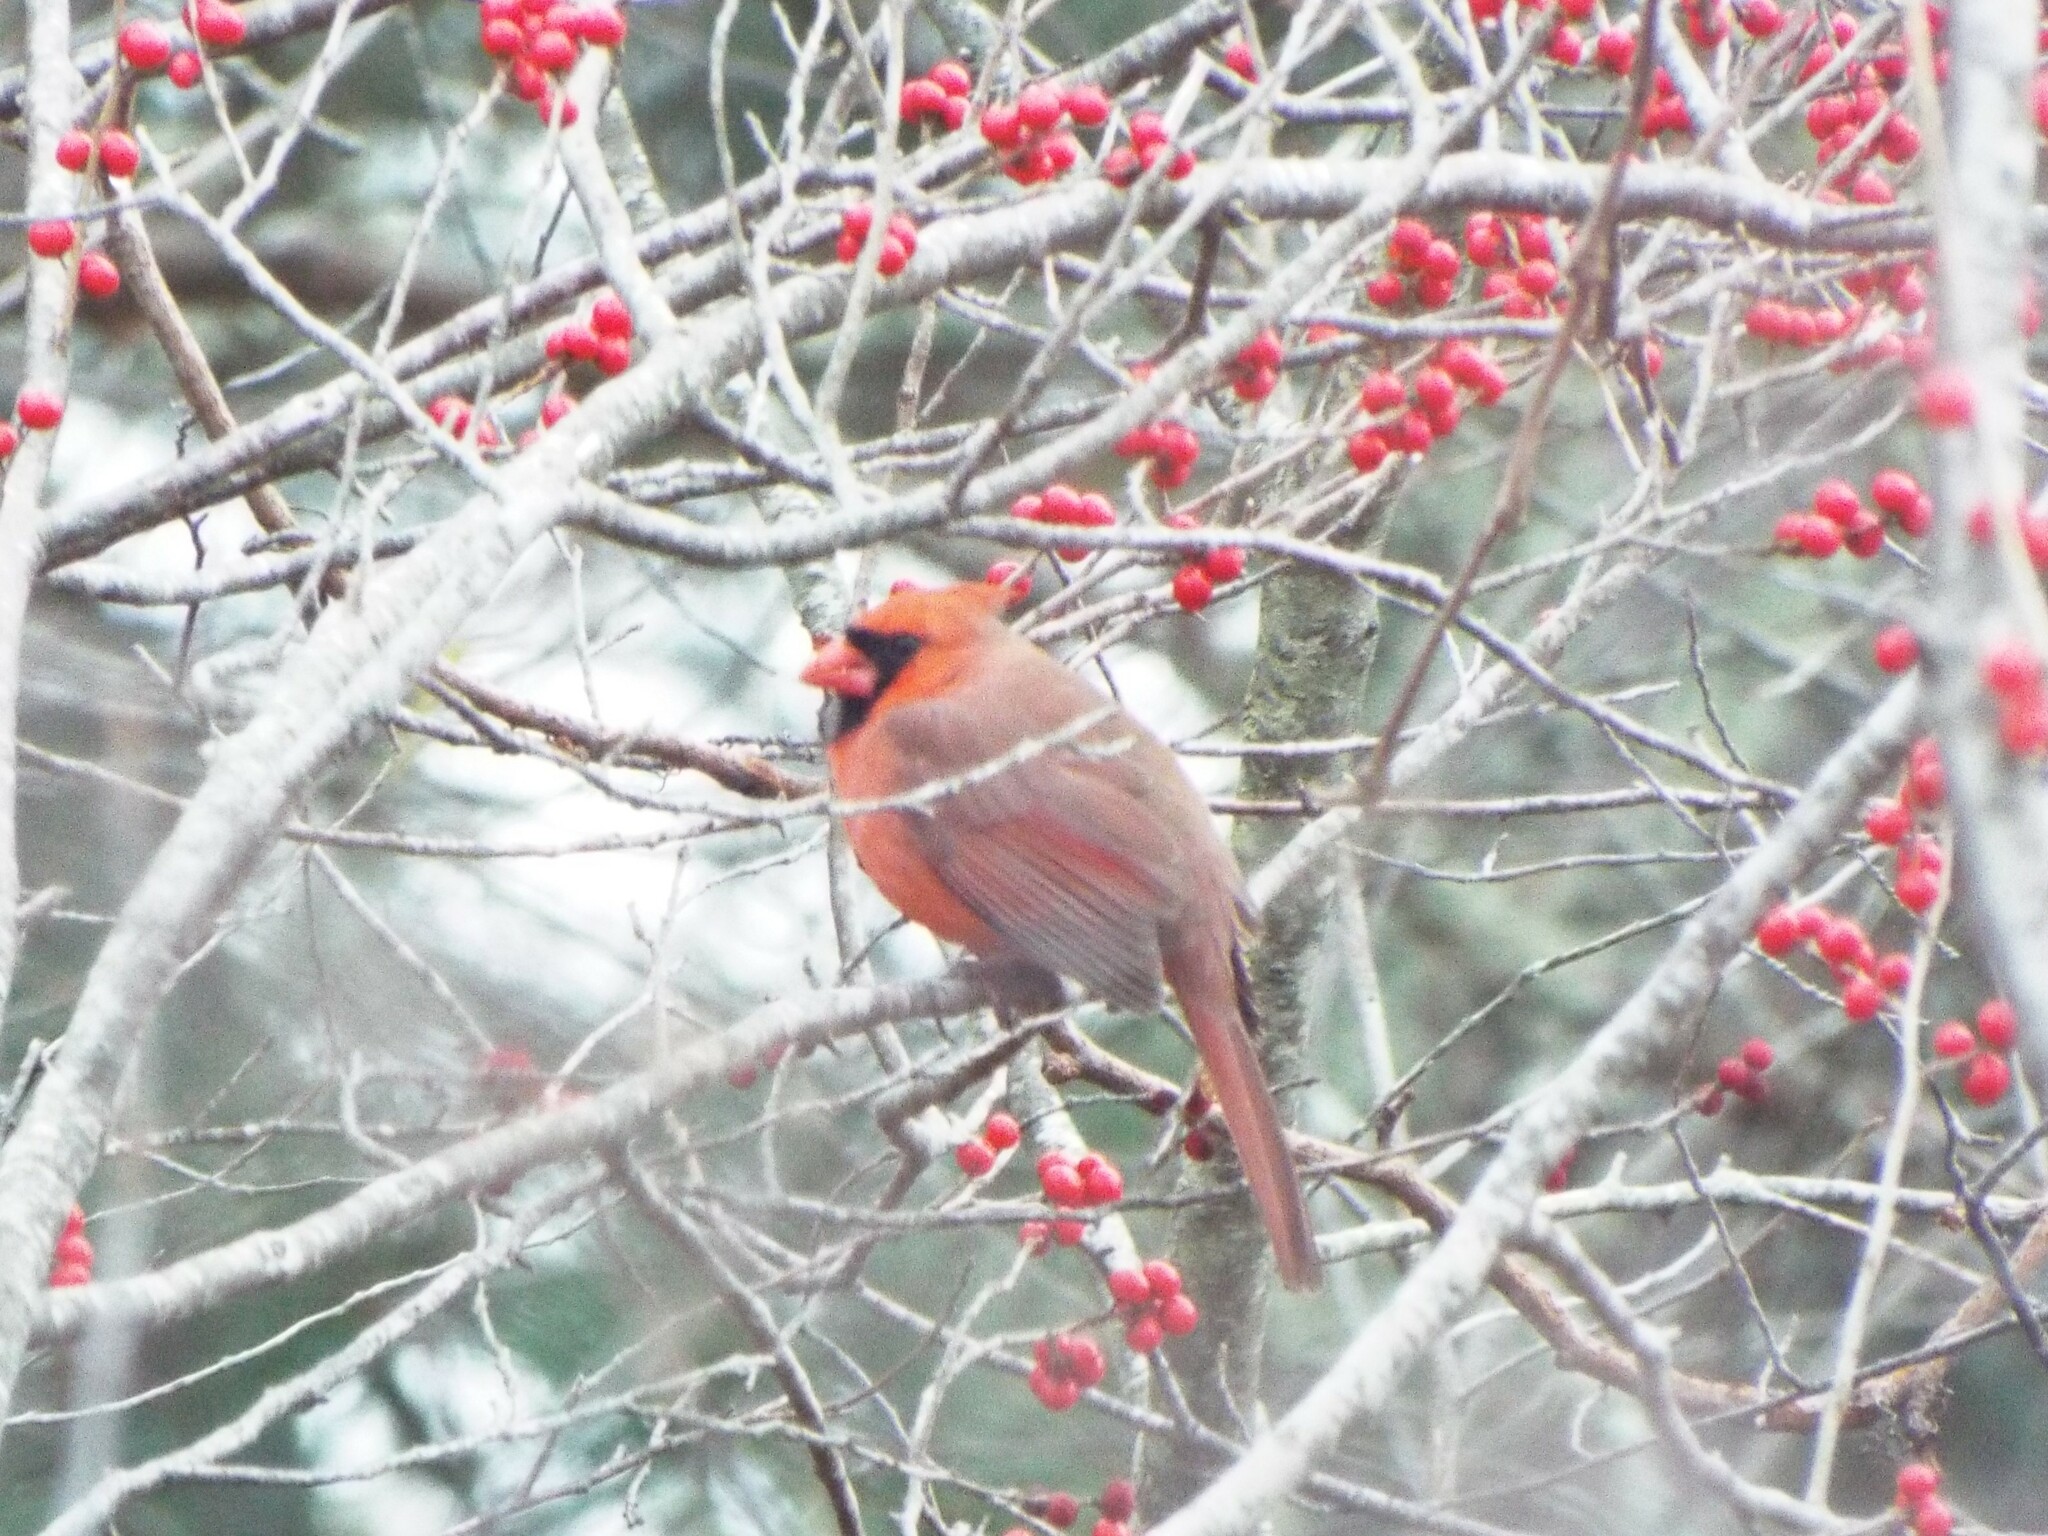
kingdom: Animalia
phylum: Chordata
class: Aves
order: Passeriformes
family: Cardinalidae
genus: Cardinalis
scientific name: Cardinalis cardinalis
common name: Northern cardinal
